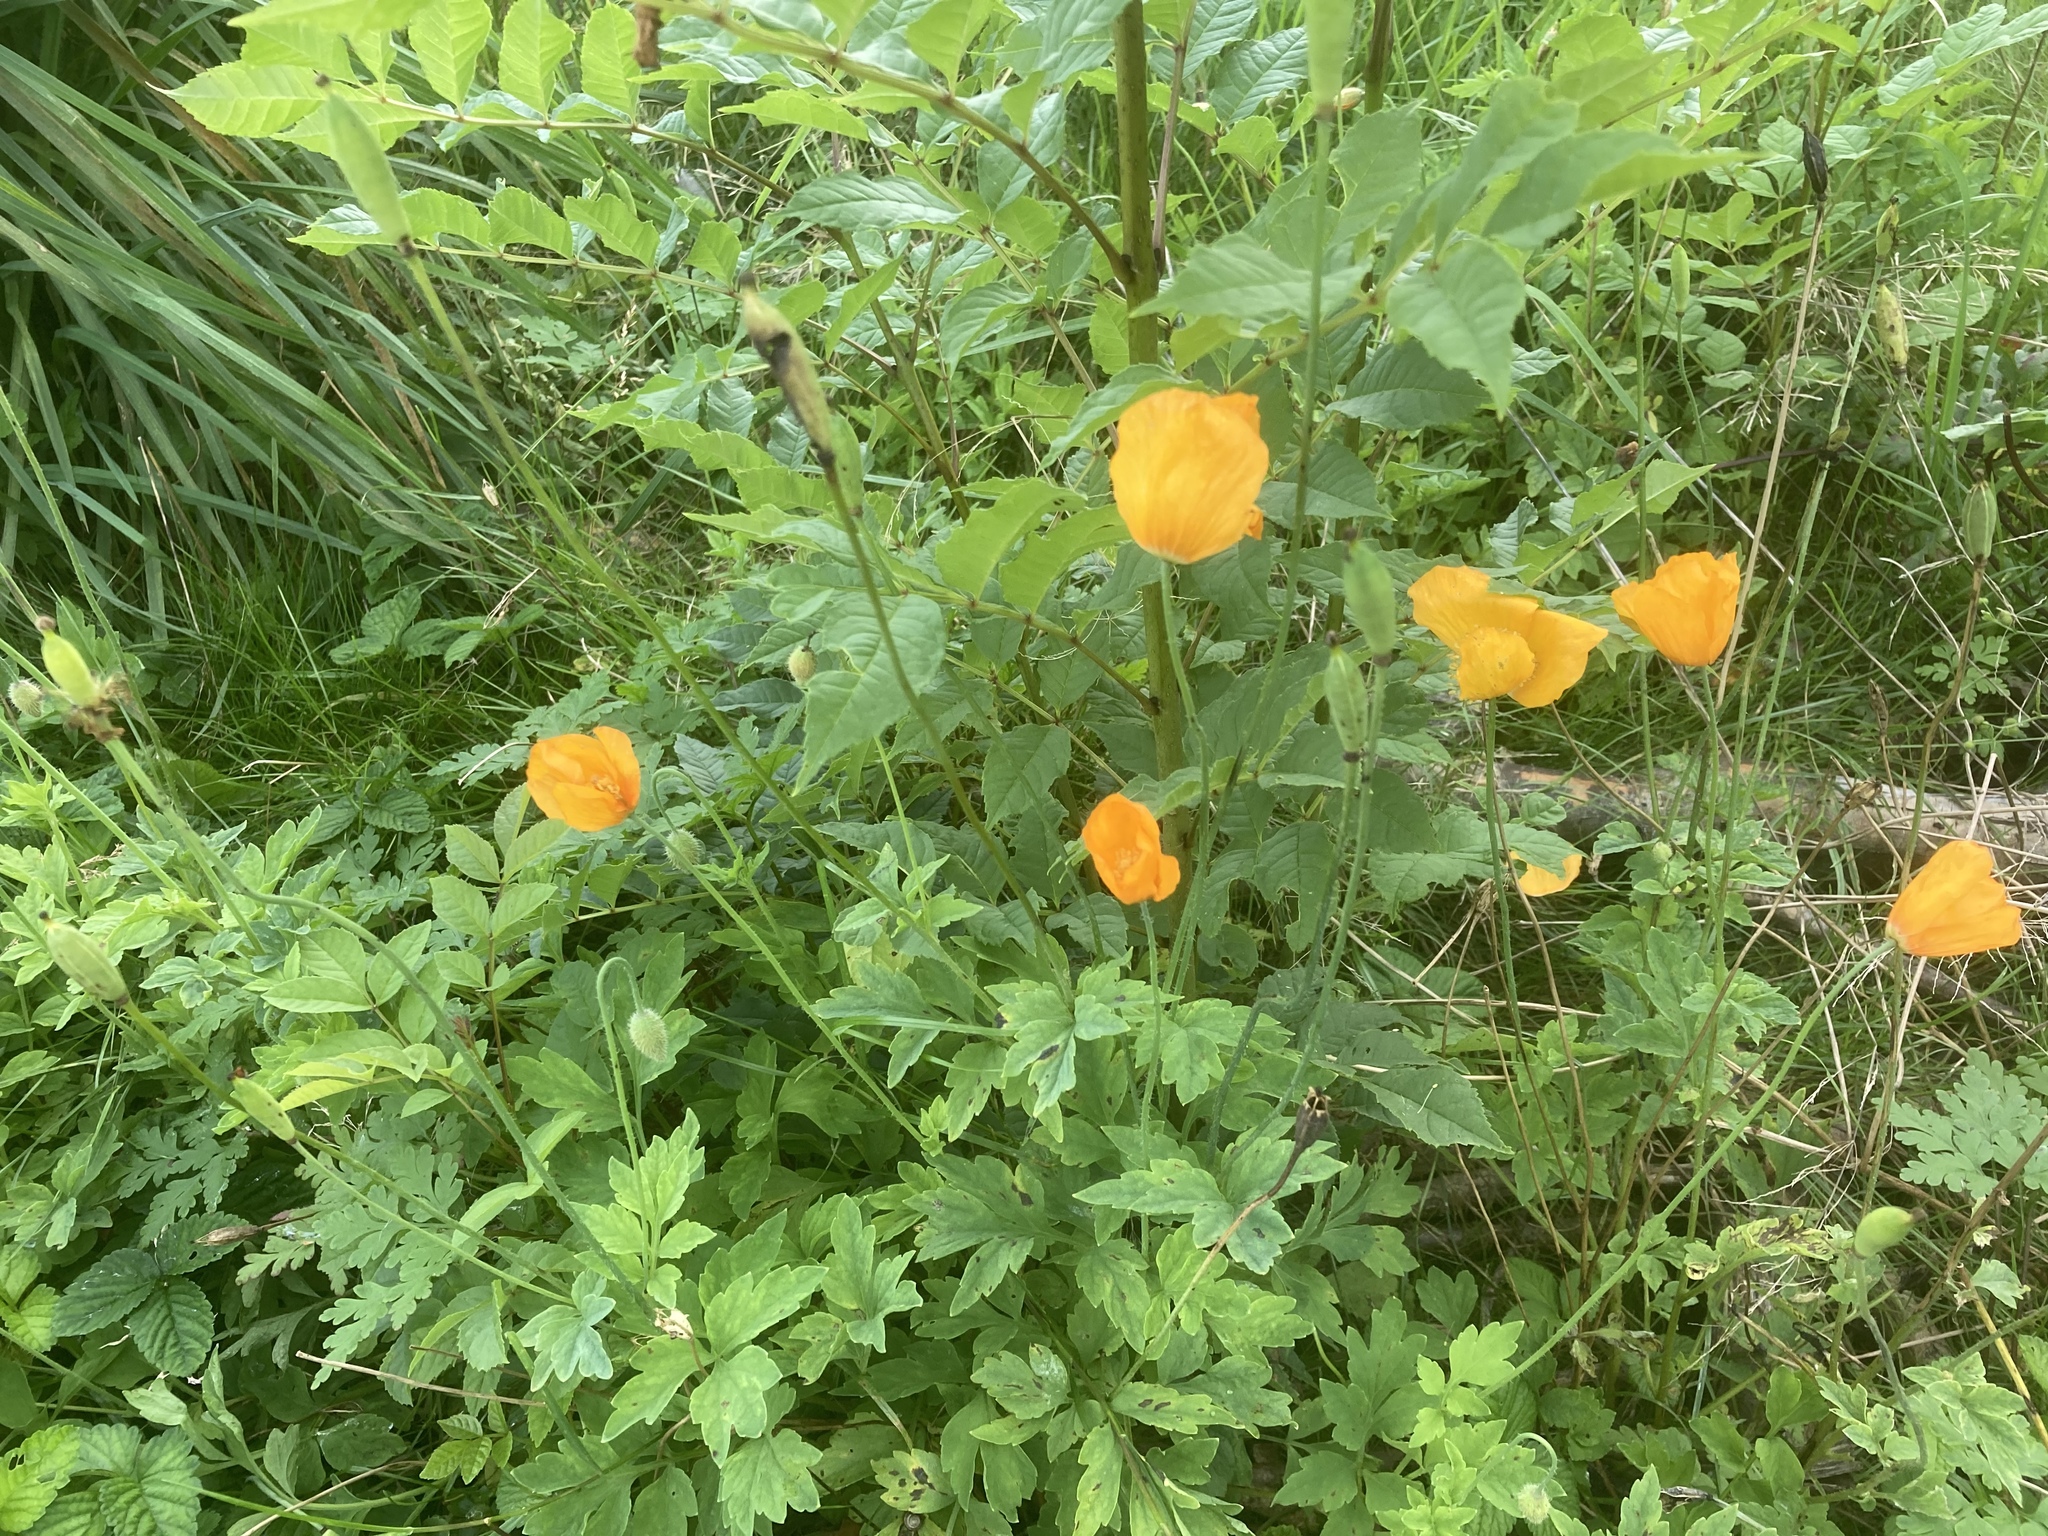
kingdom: Plantae
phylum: Tracheophyta
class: Magnoliopsida
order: Ranunculales
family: Papaveraceae
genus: Papaver
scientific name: Papaver cambricum
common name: Poppy
